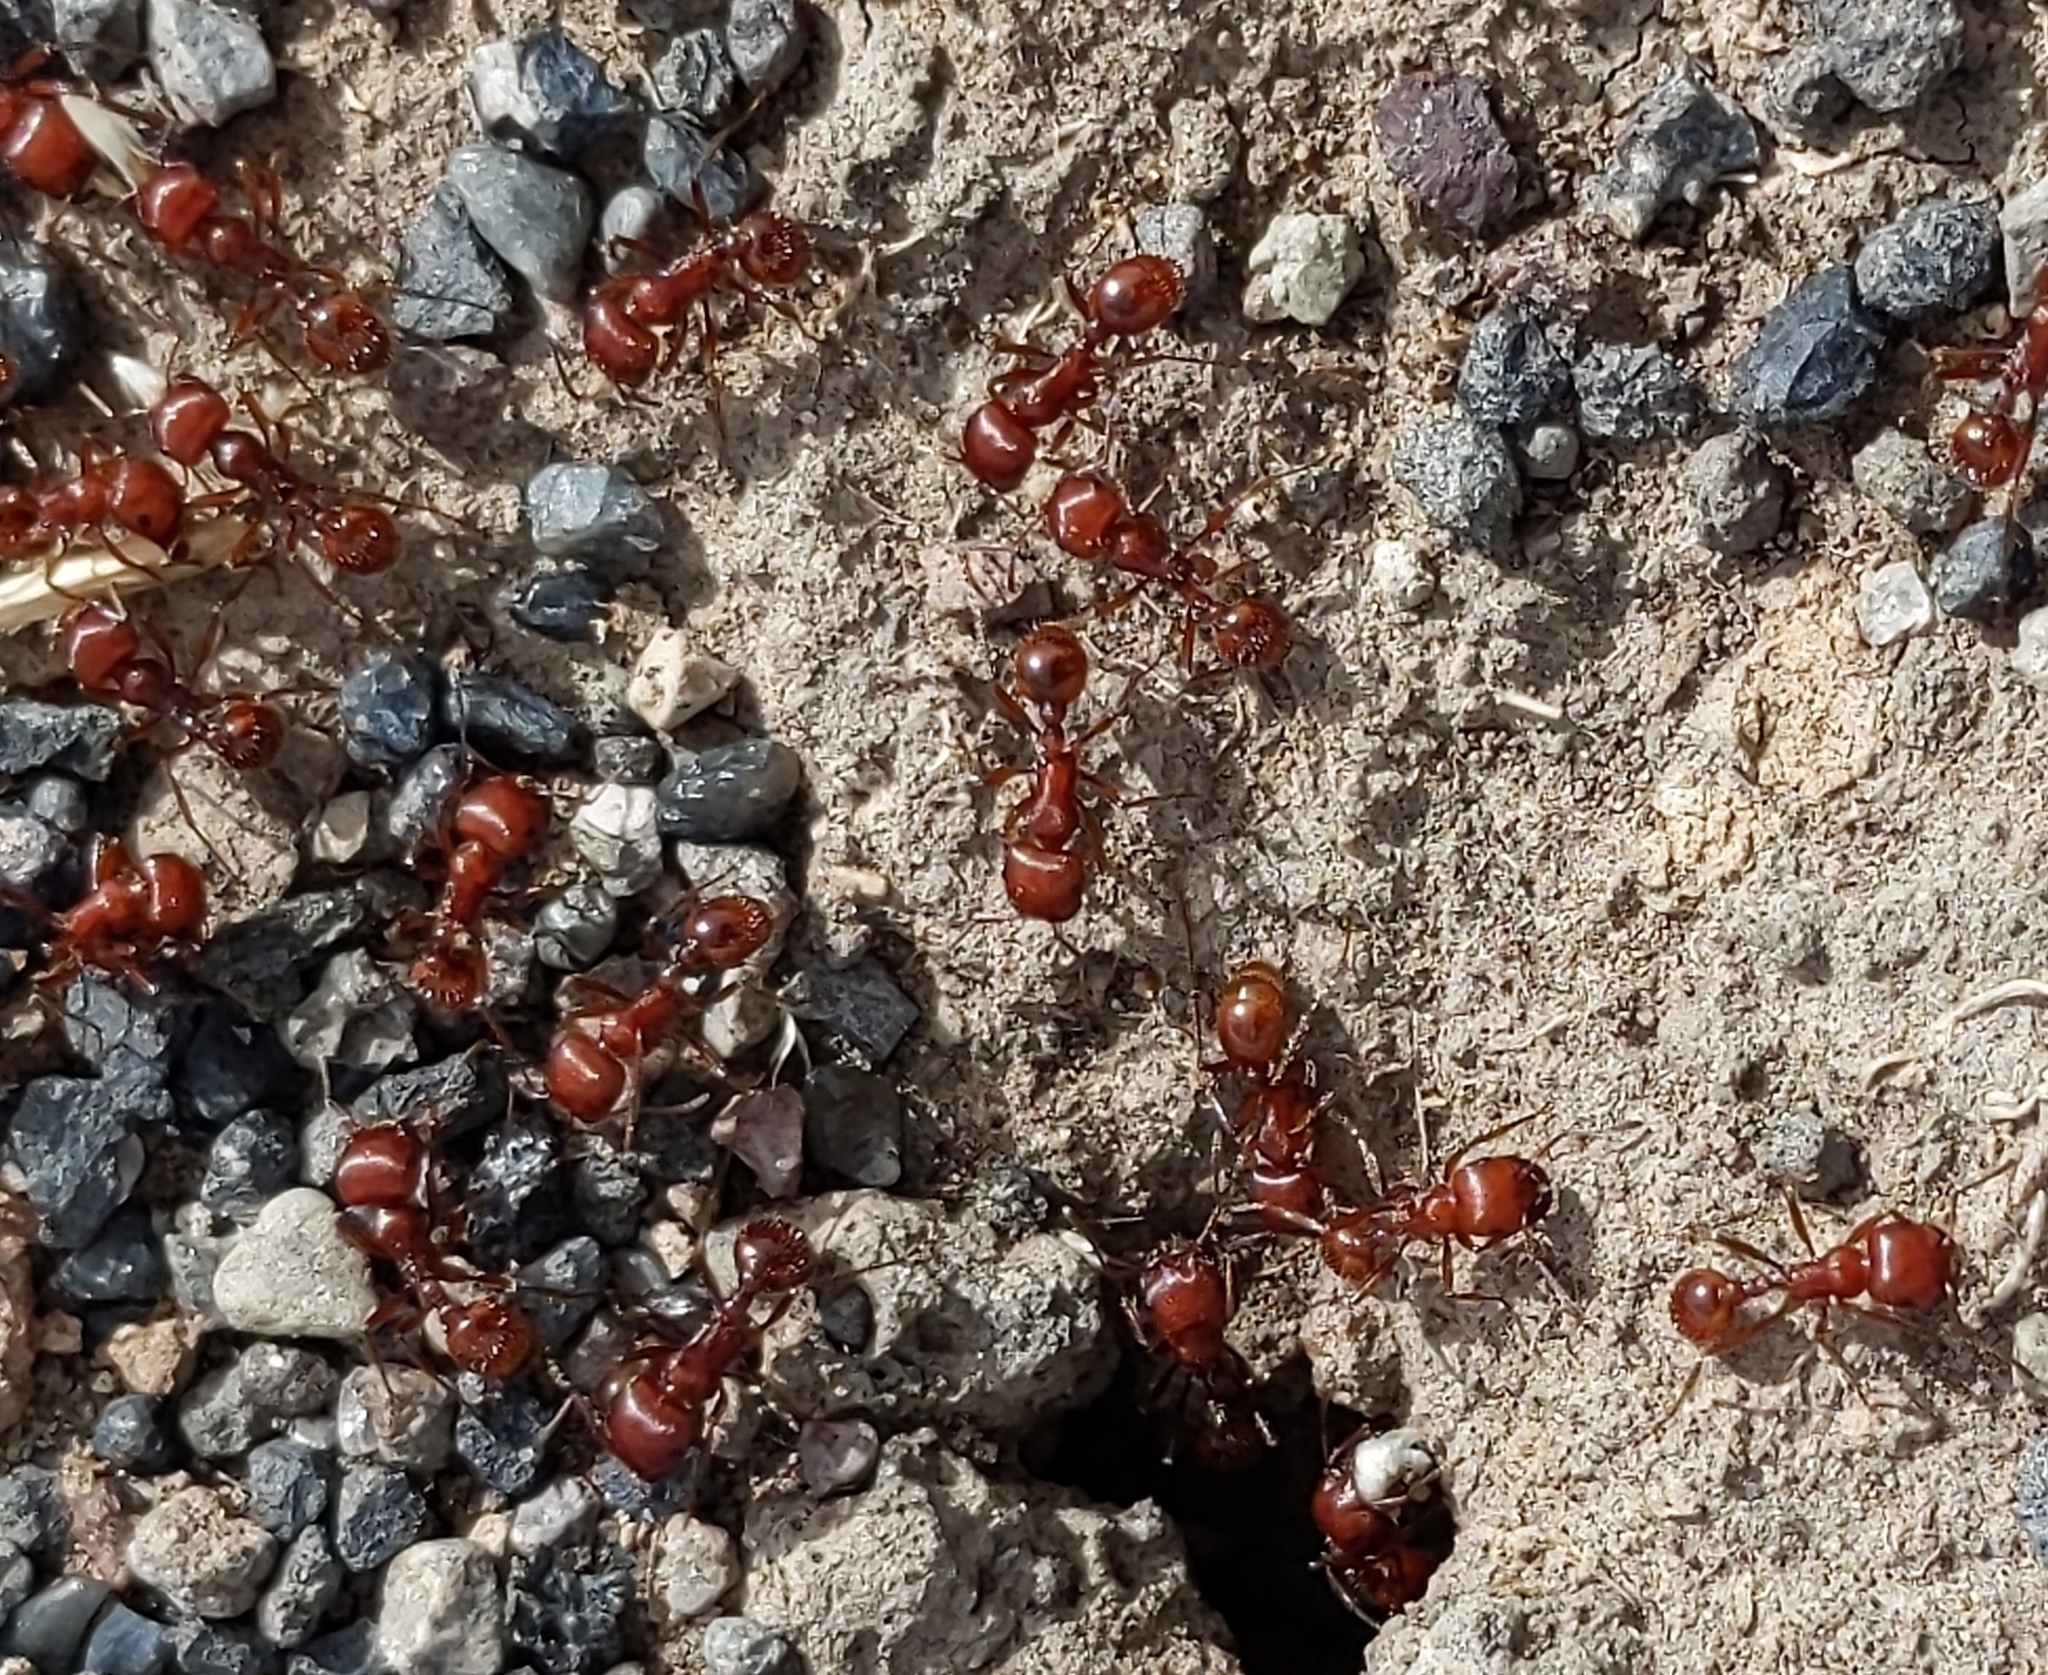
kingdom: Animalia
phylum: Arthropoda
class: Insecta
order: Hymenoptera
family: Formicidae
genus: Pogonomyrmex
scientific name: Pogonomyrmex barbatus
